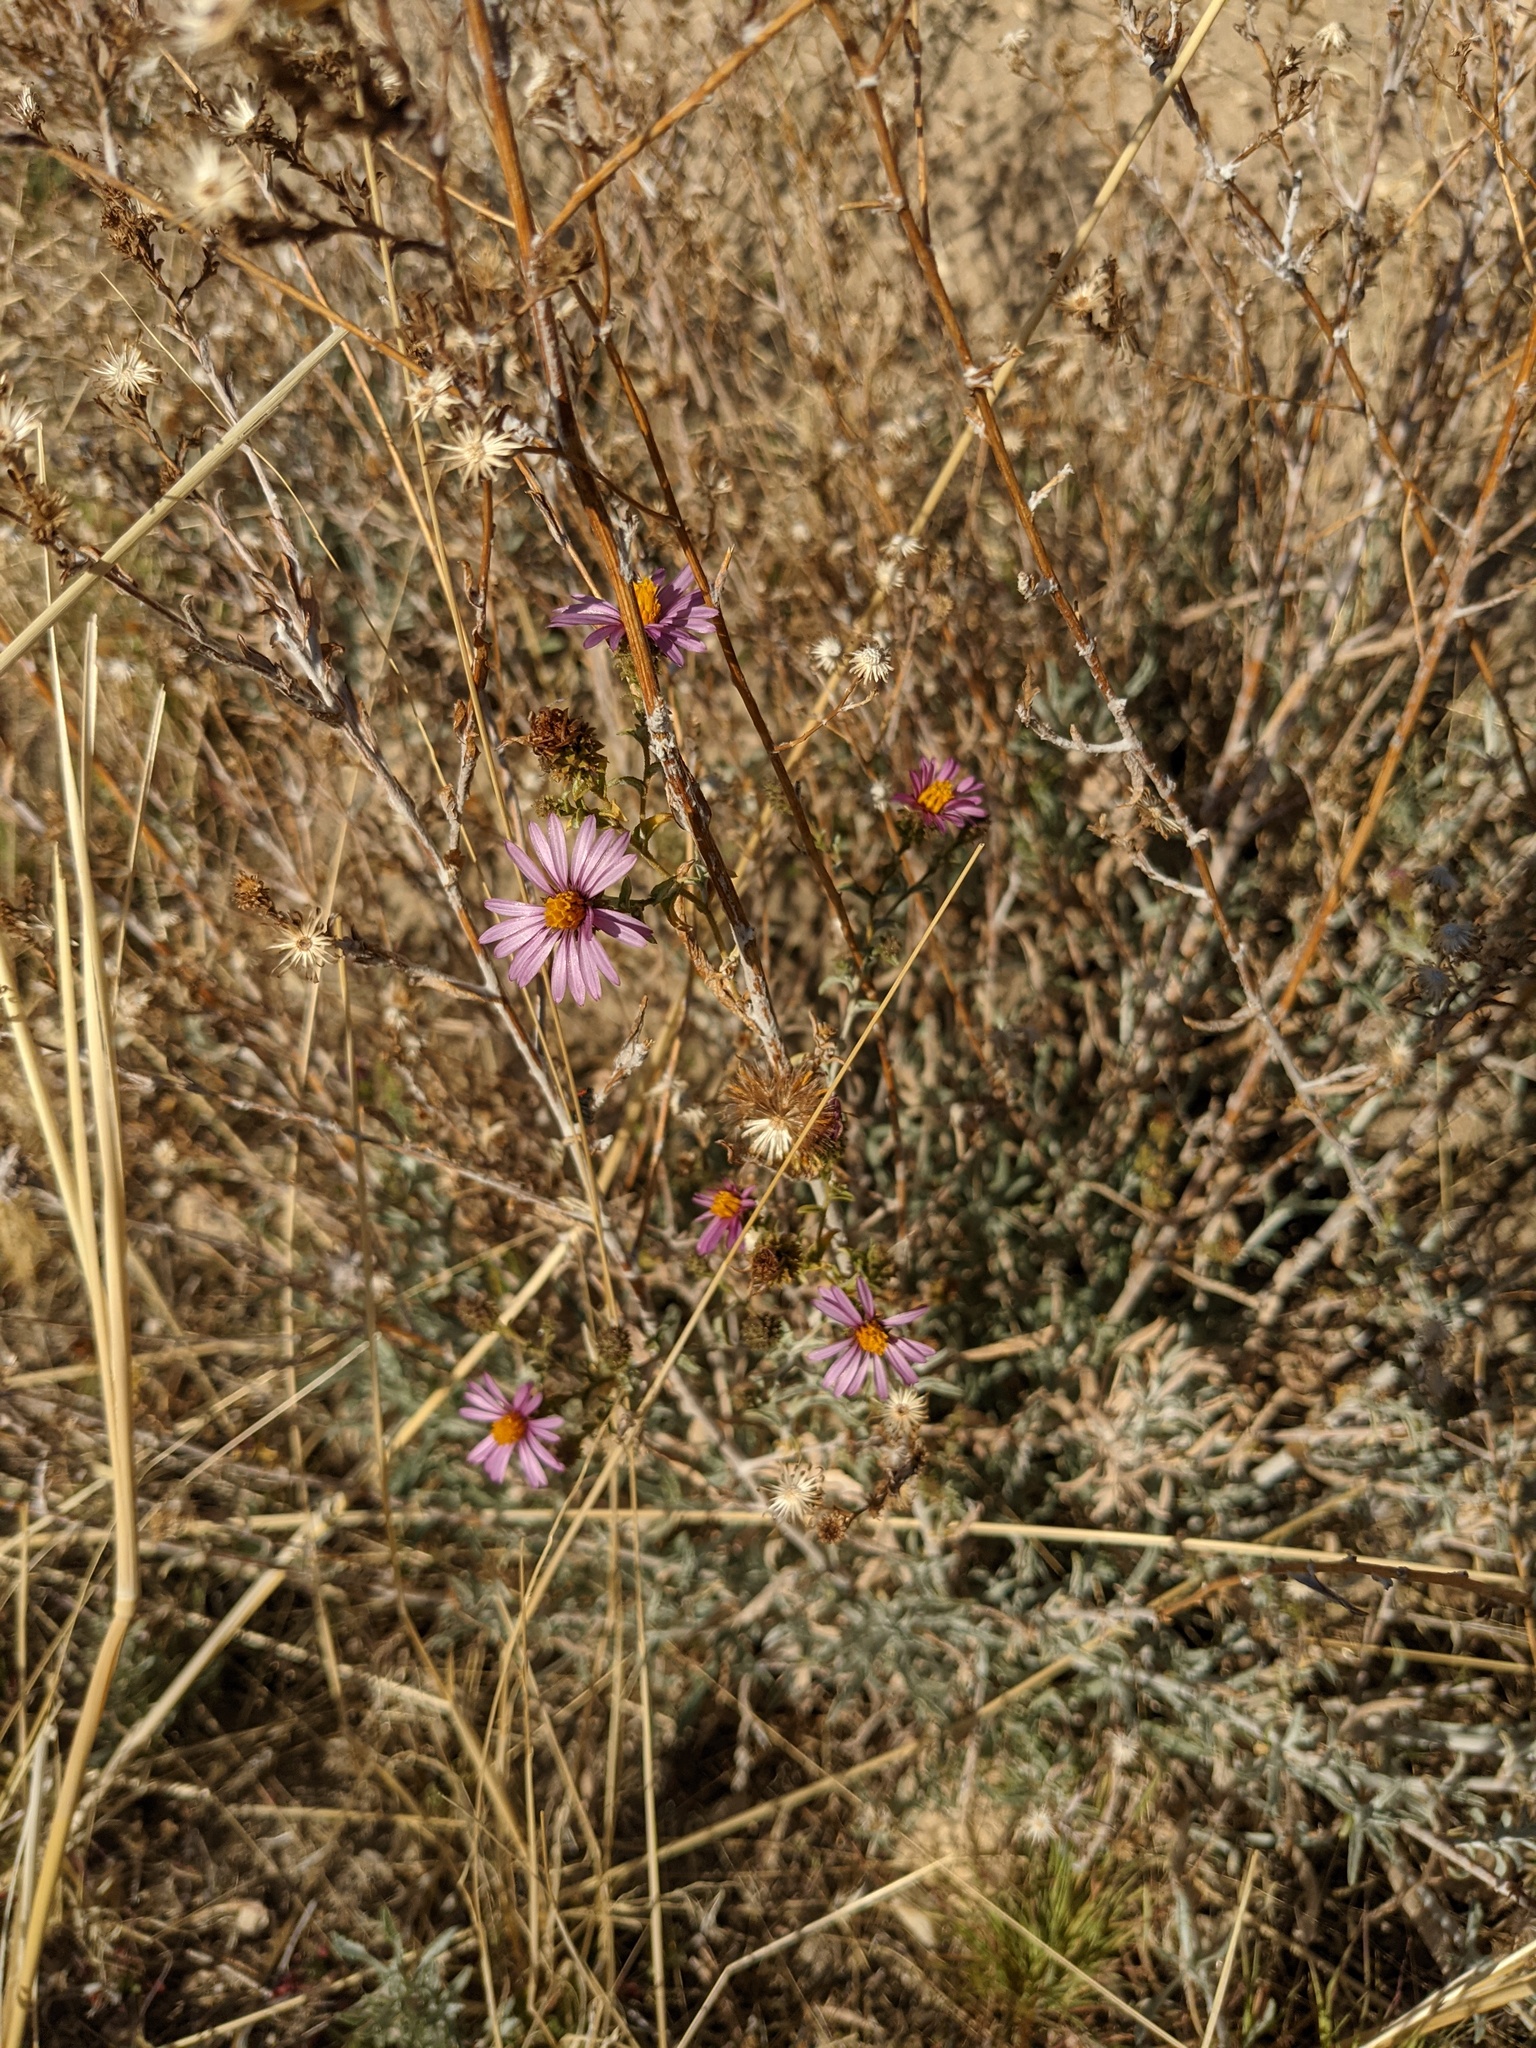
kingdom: Plantae
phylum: Tracheophyta
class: Magnoliopsida
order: Asterales
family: Asteraceae
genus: Corethrogyne
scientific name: Corethrogyne filaginifolia
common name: Sand-aster
